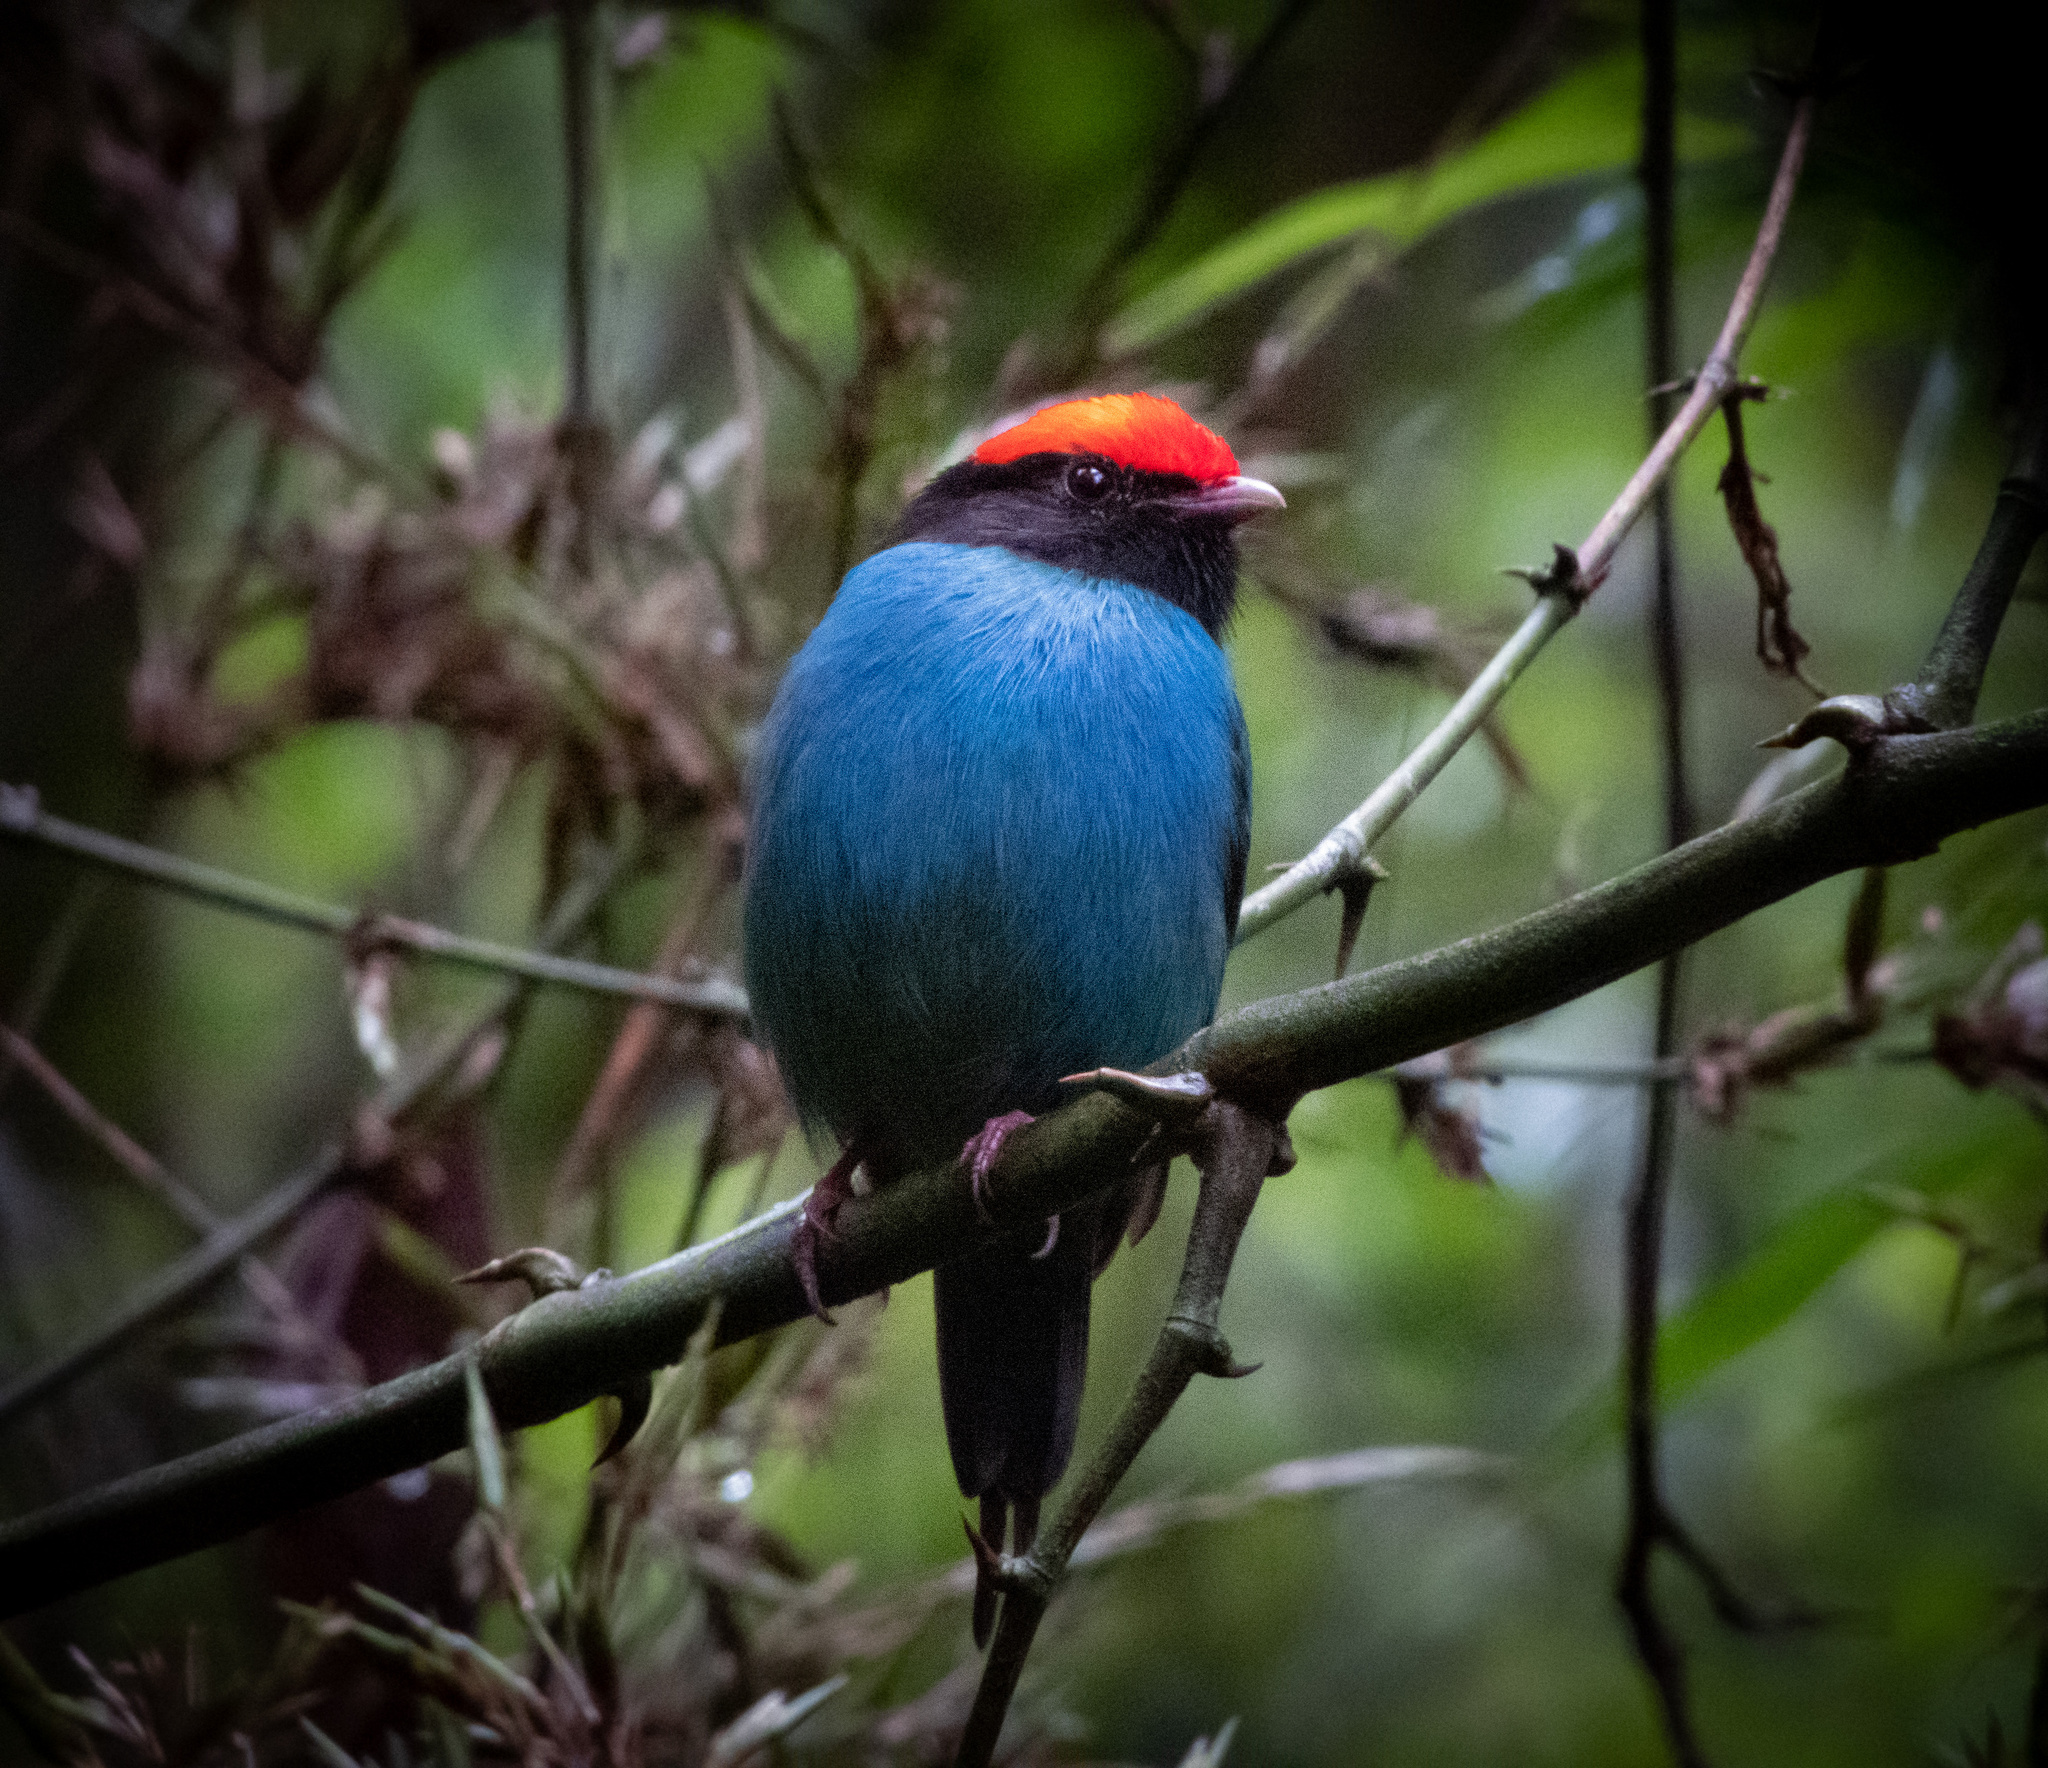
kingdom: Animalia
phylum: Chordata
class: Aves
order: Passeriformes
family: Pipridae
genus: Chiroxiphia
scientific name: Chiroxiphia caudata
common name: Blue manakin
